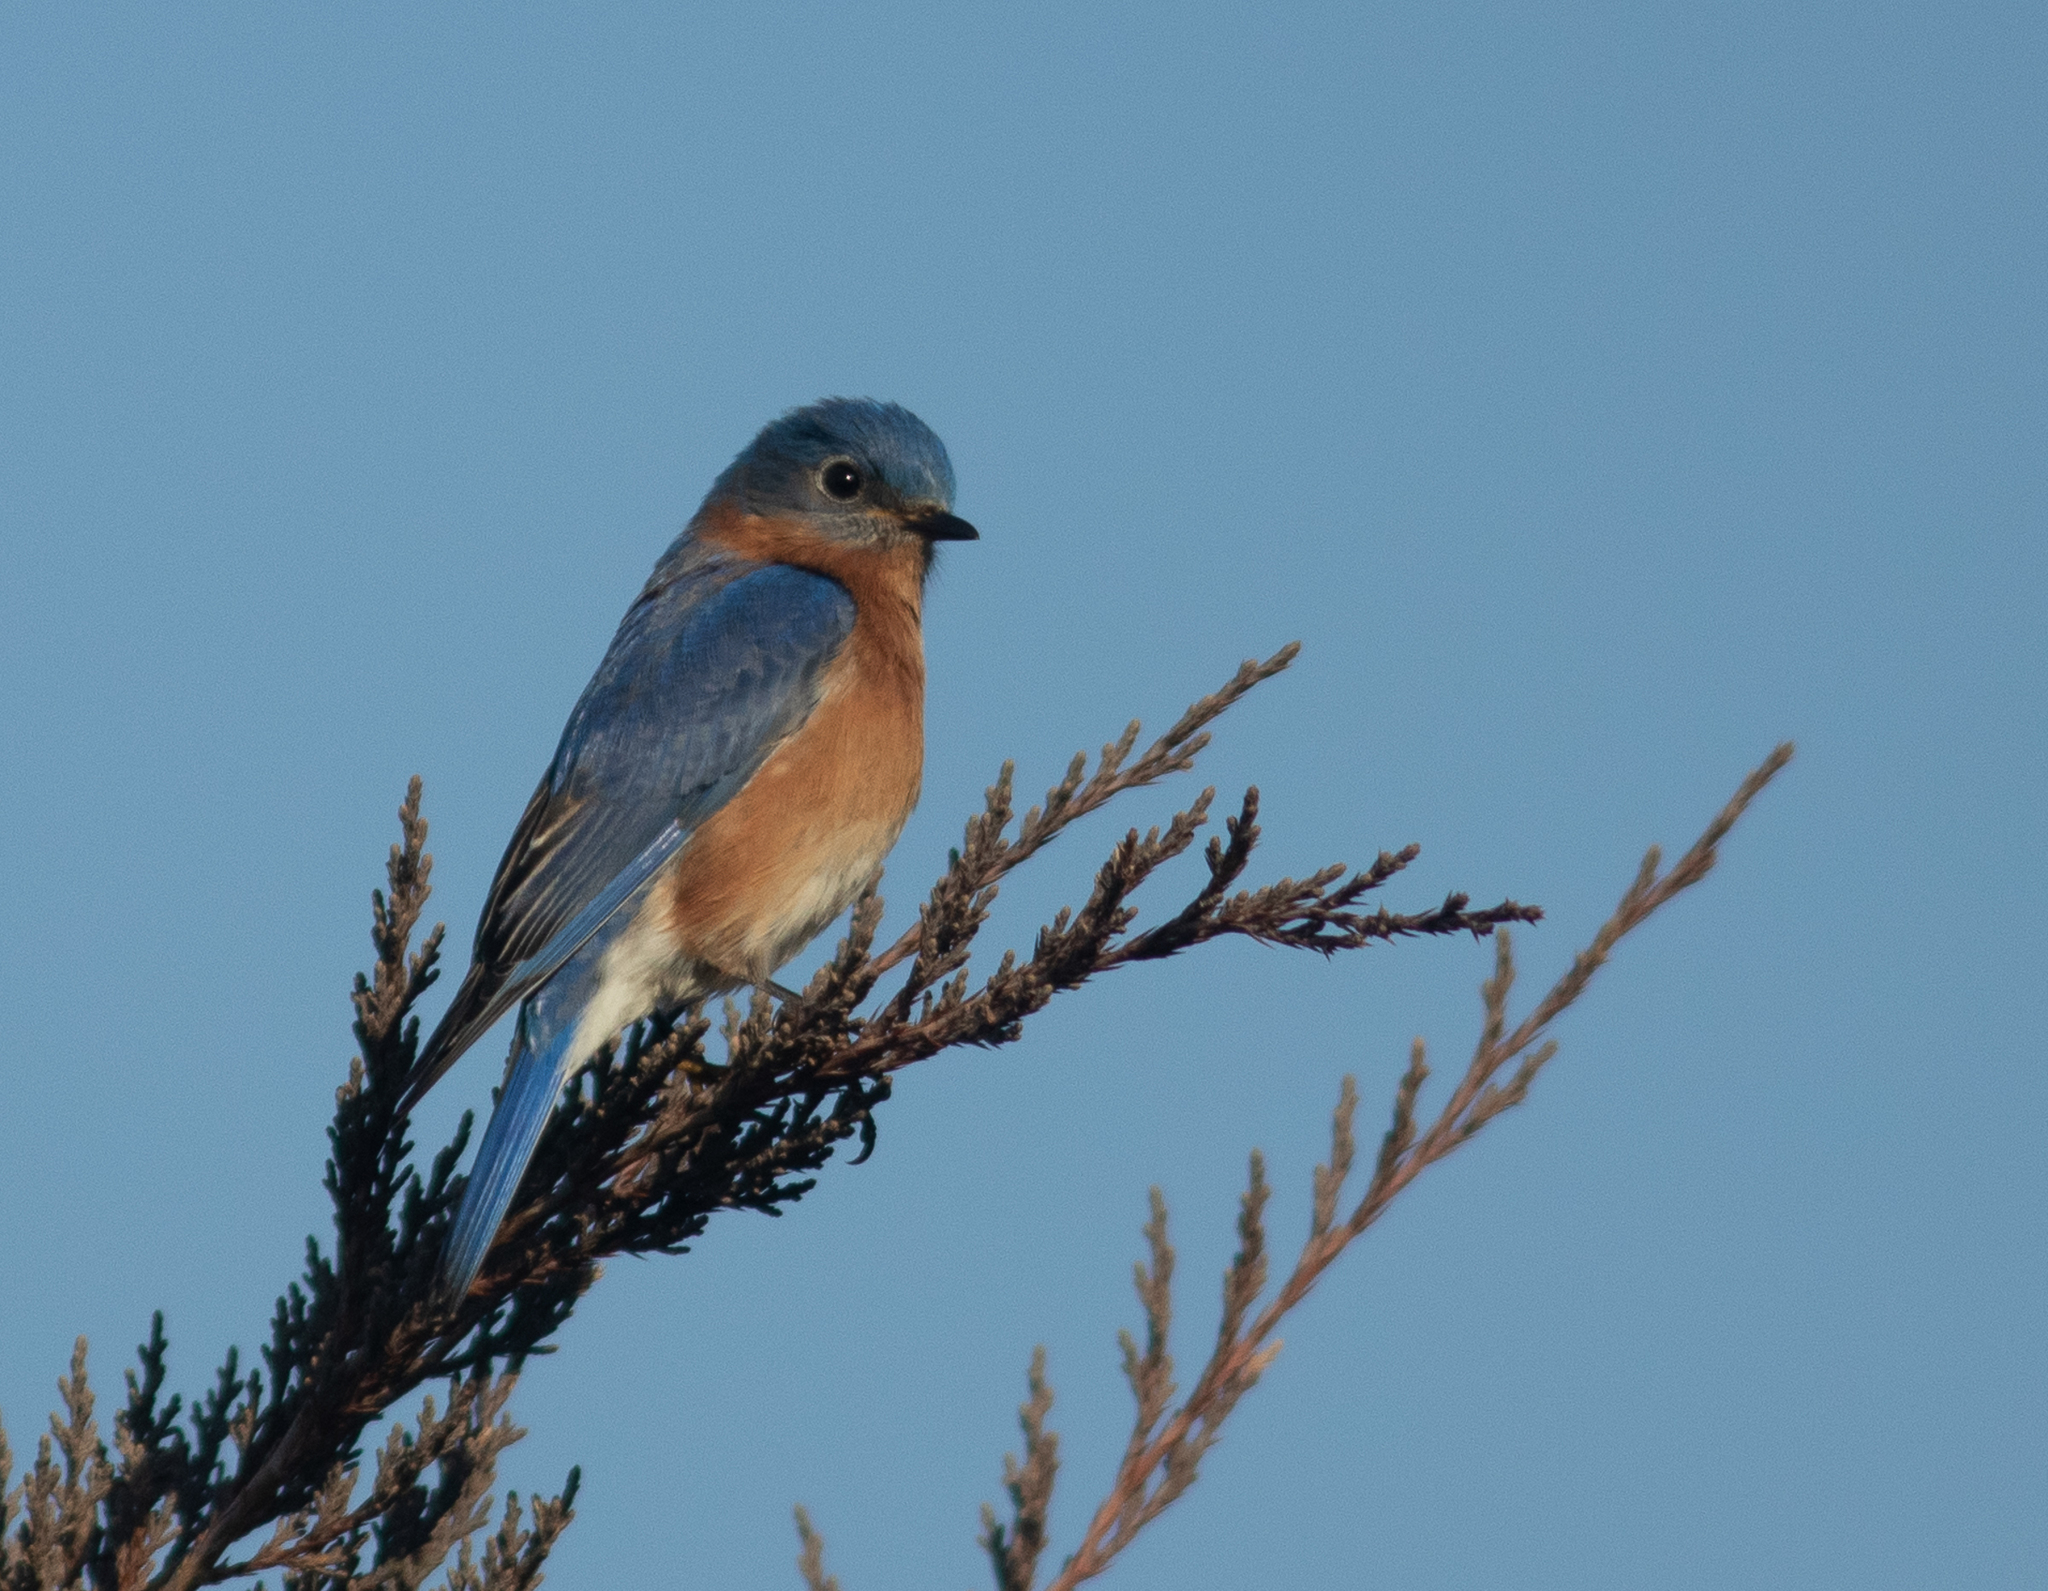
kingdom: Animalia
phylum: Chordata
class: Aves
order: Passeriformes
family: Turdidae
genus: Sialia
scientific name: Sialia sialis
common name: Eastern bluebird
